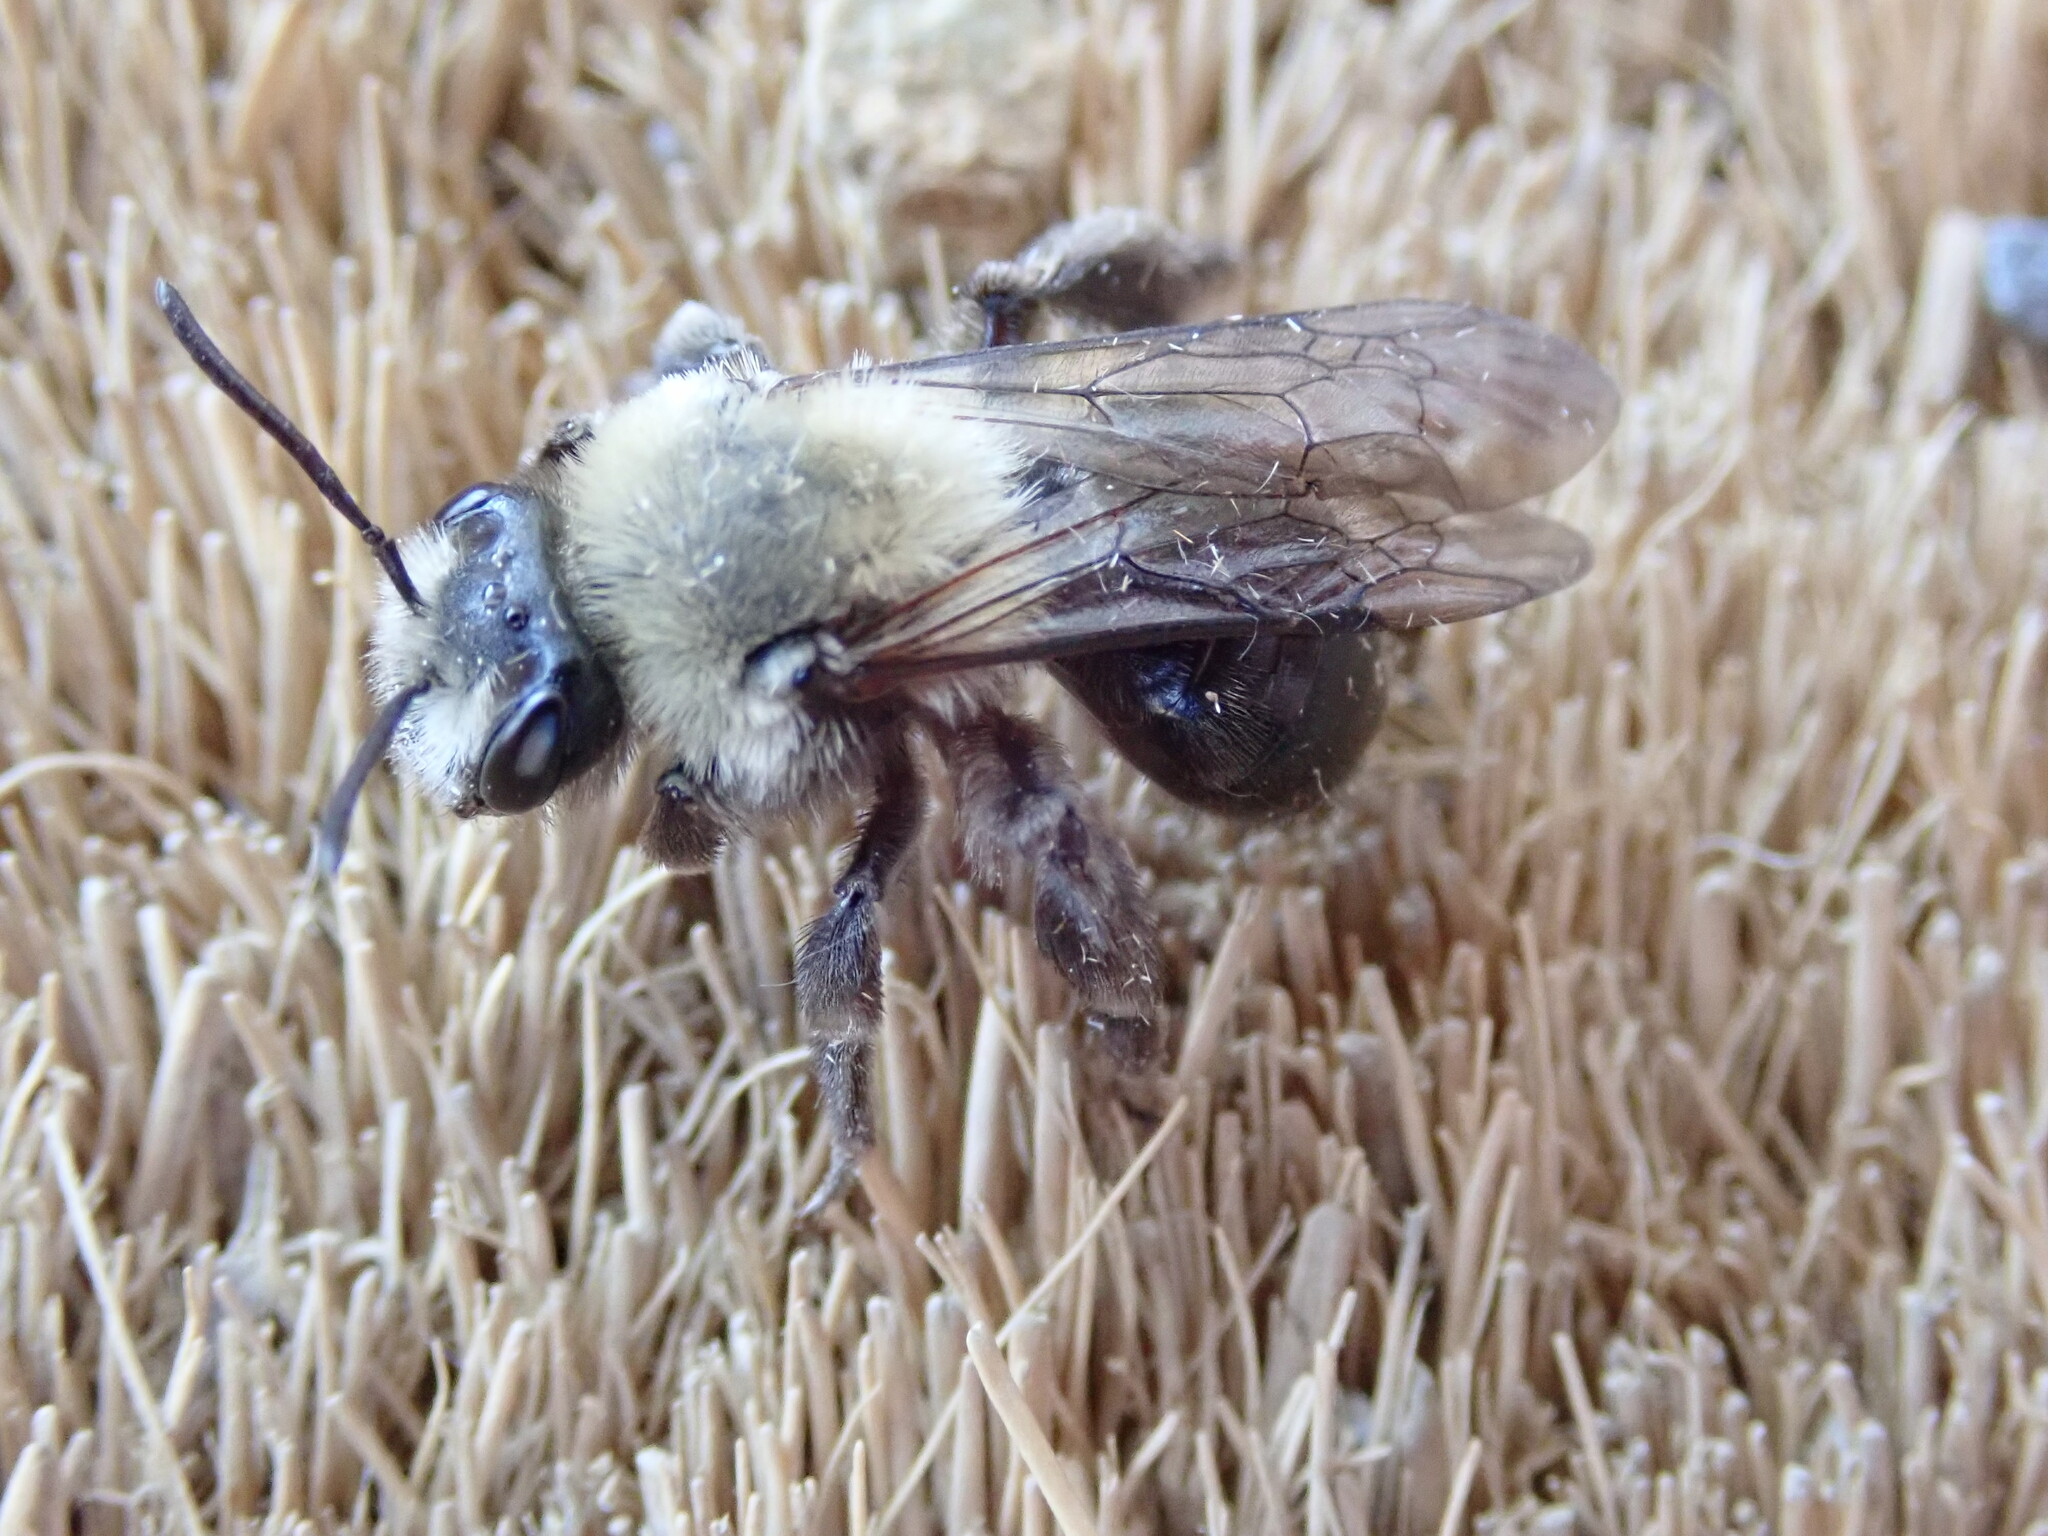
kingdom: Animalia
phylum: Arthropoda
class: Insecta
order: Hymenoptera
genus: Melandrena
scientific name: Melandrena
